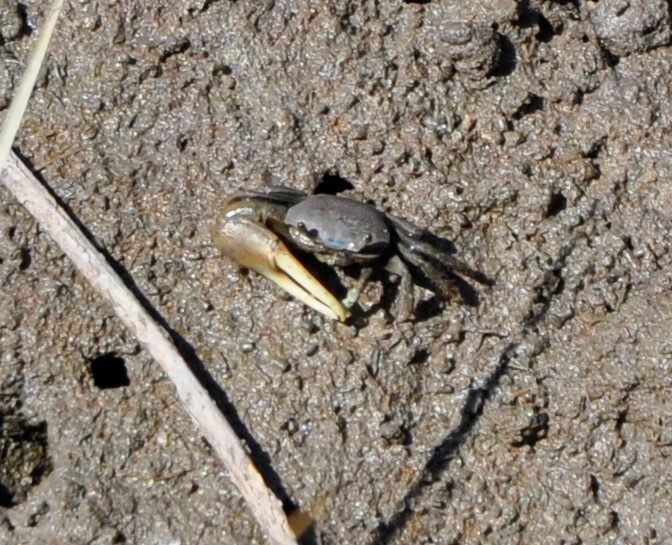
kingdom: Animalia
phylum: Arthropoda
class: Malacostraca
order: Decapoda
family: Ocypodidae
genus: Minuca
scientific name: Minuca pugnax
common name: Mud fiddler crab
